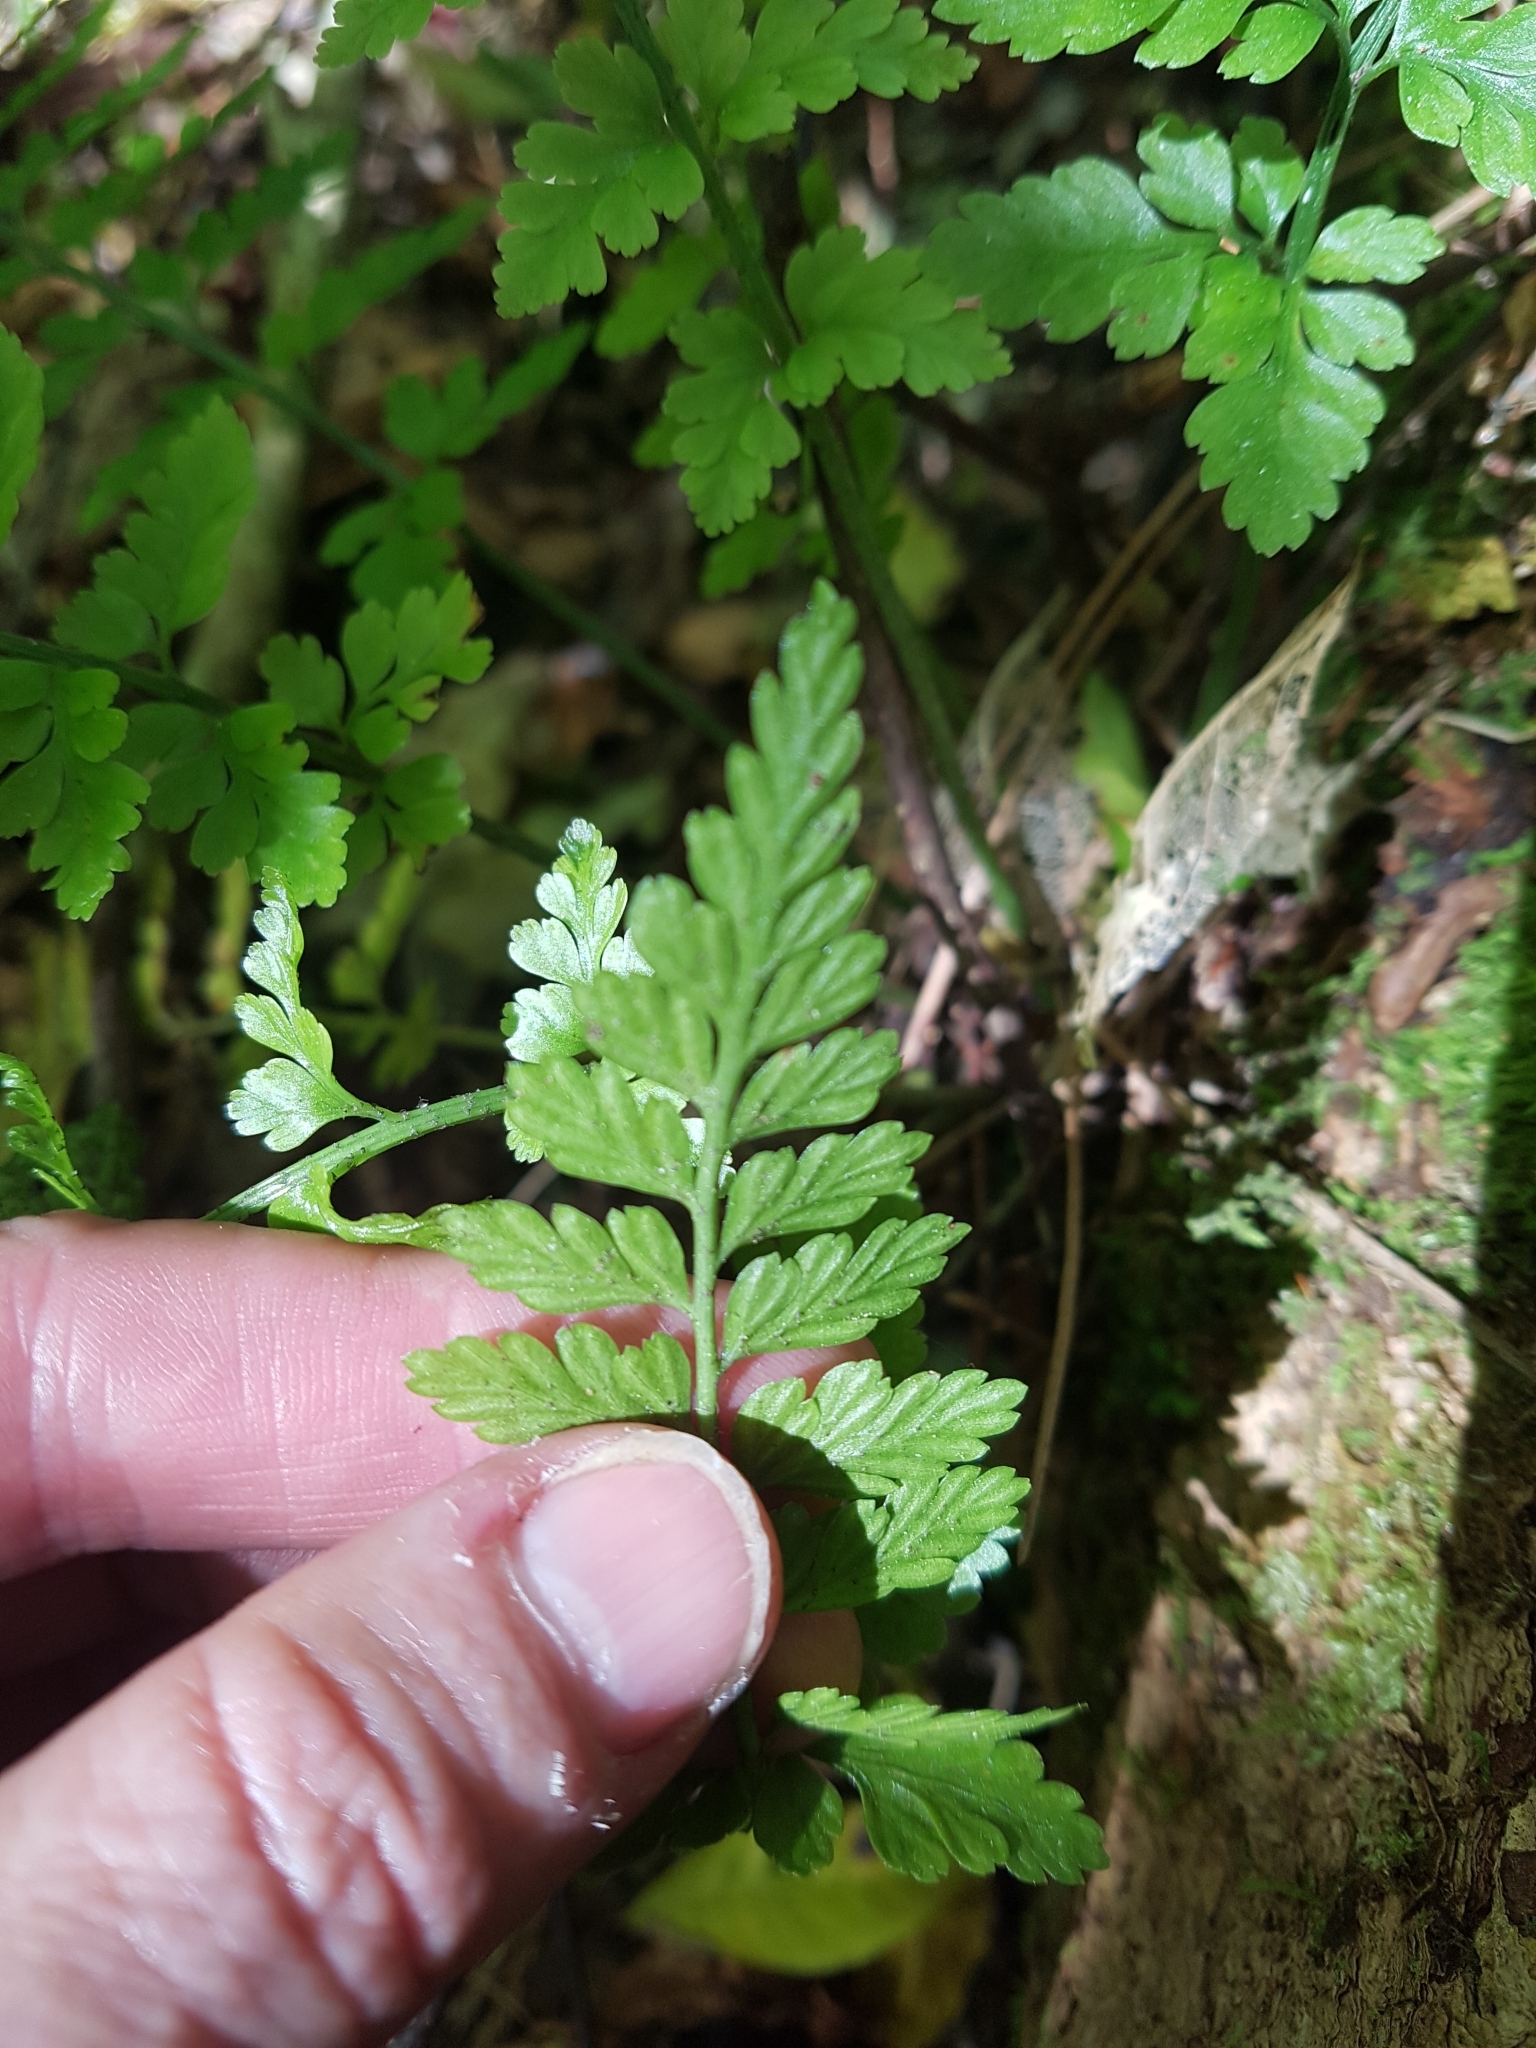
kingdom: Plantae
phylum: Tracheophyta
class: Polypodiopsida
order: Polypodiales
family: Aspleniaceae
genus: Asplenium
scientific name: Asplenium
